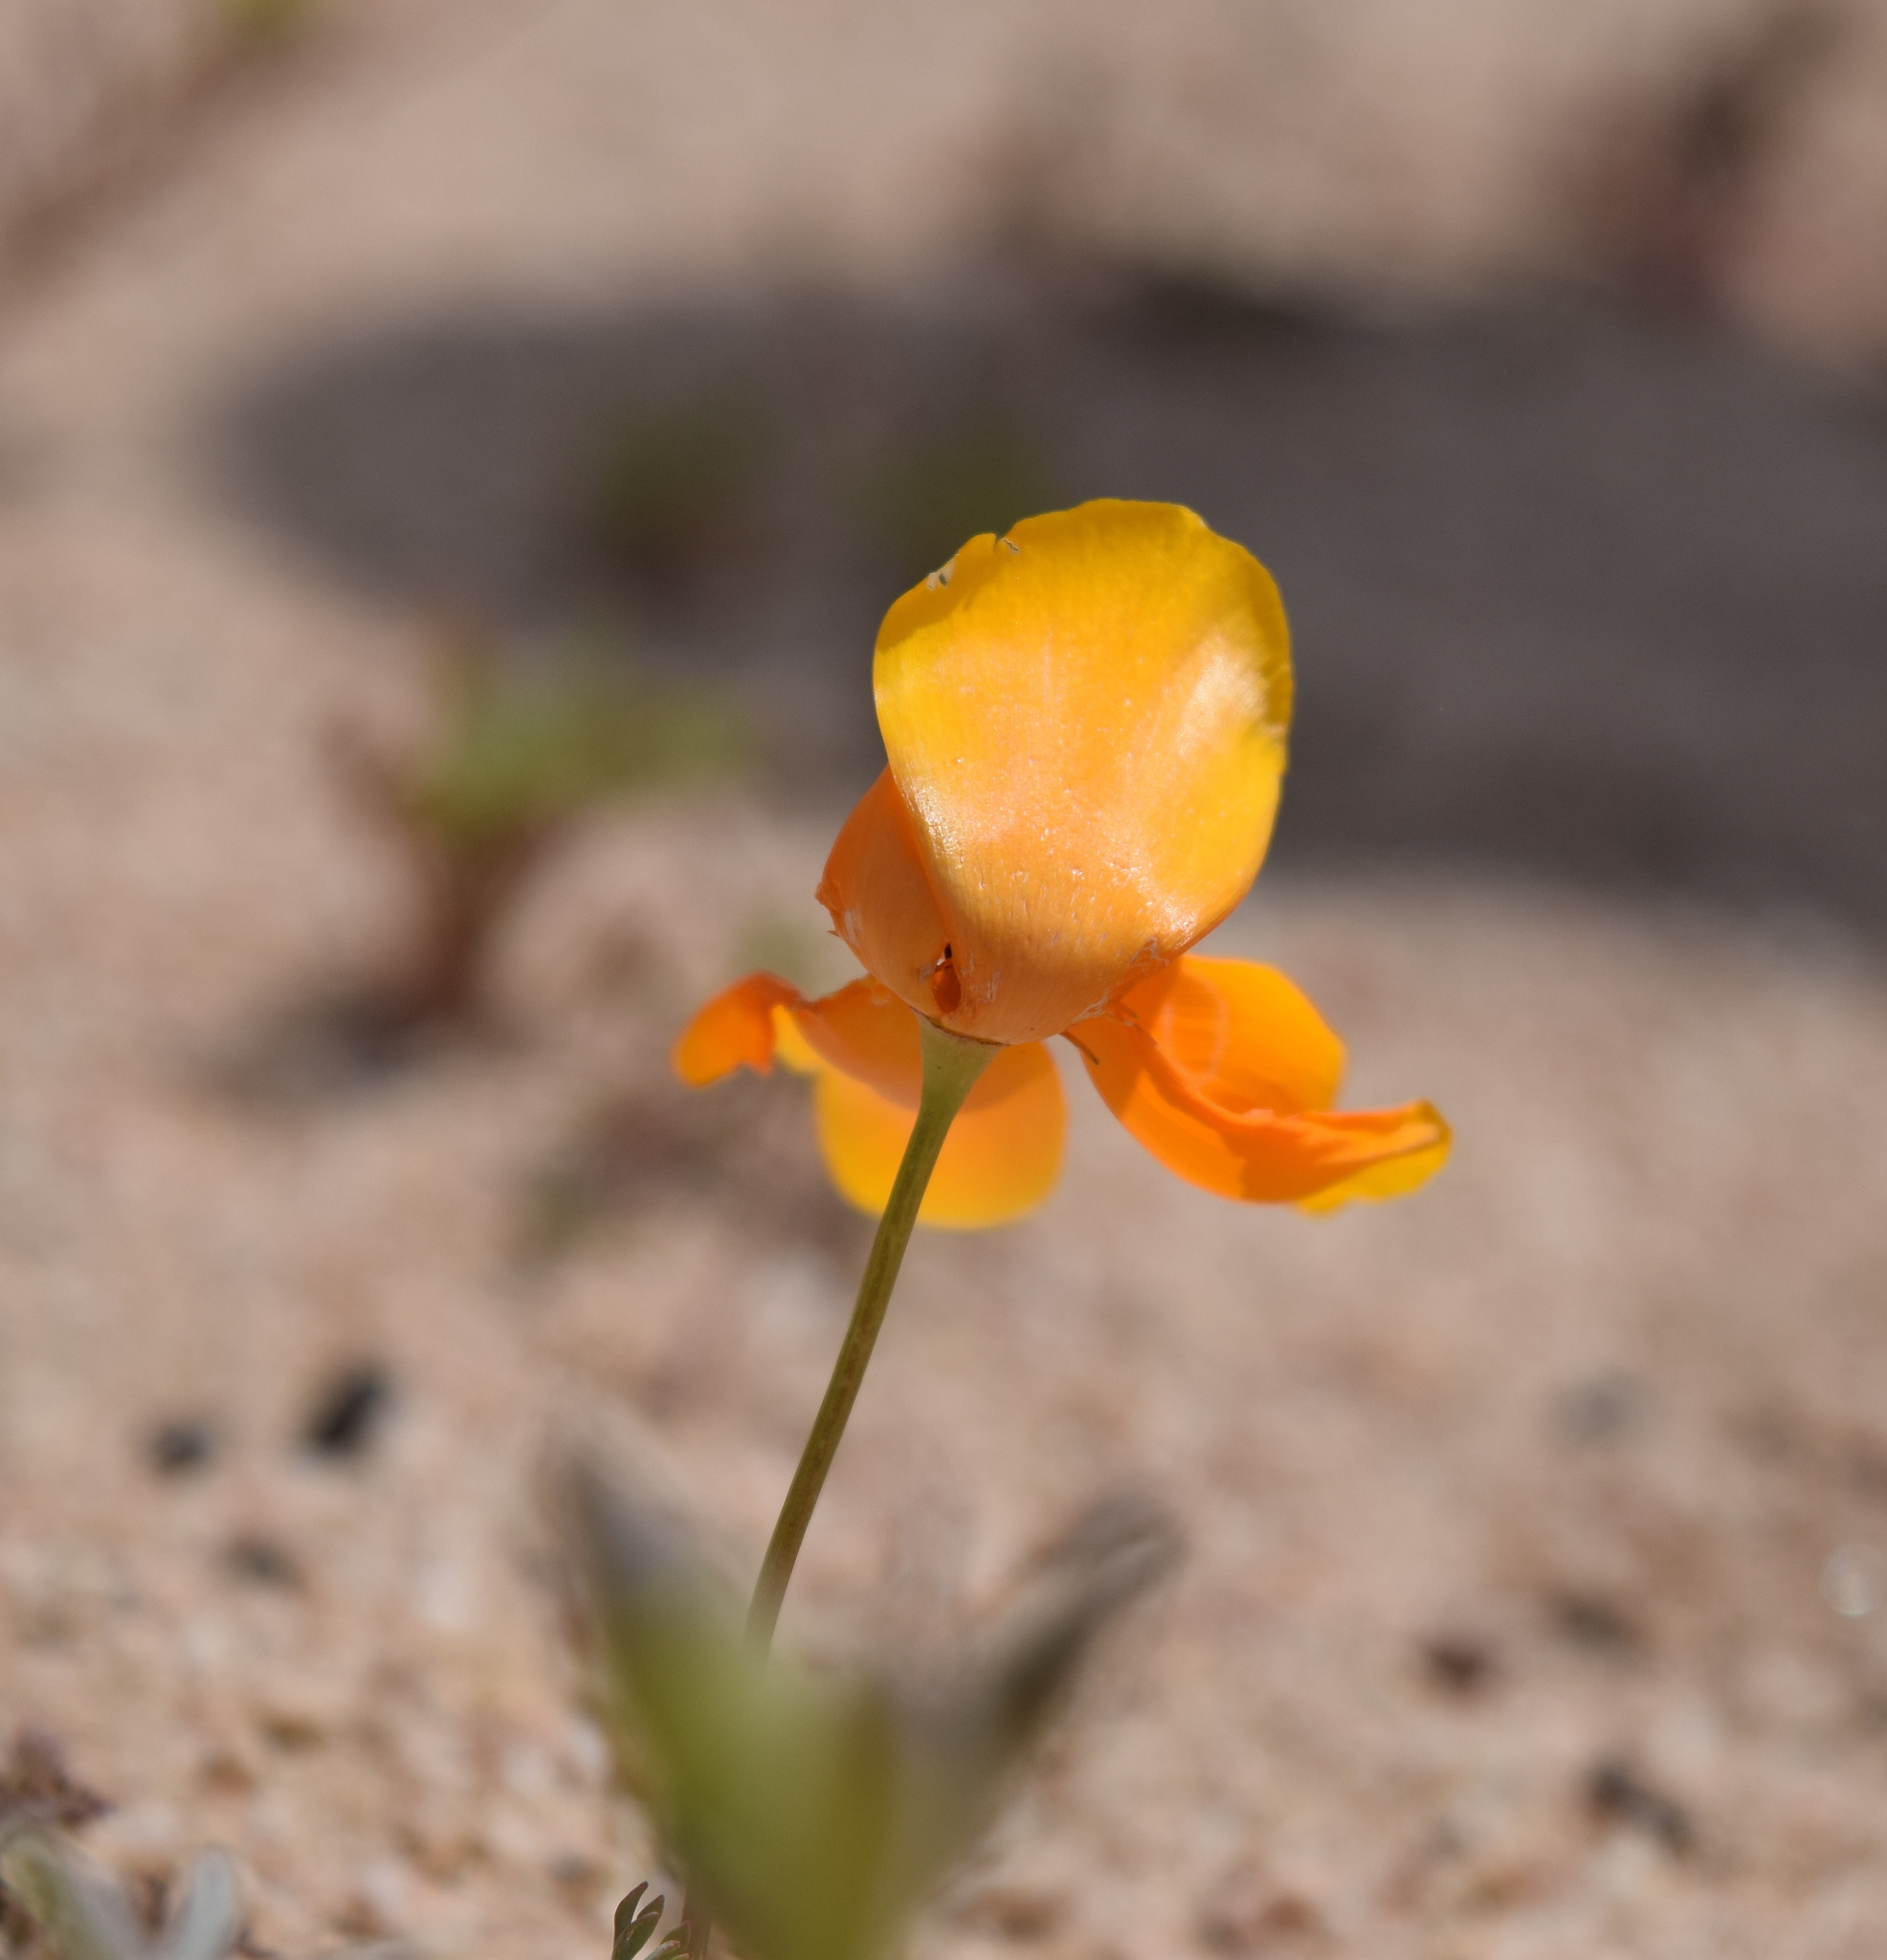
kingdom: Plantae
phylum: Tracheophyta
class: Magnoliopsida
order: Ranunculales
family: Papaveraceae
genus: Eschscholzia
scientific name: Eschscholzia californica
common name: California poppy
